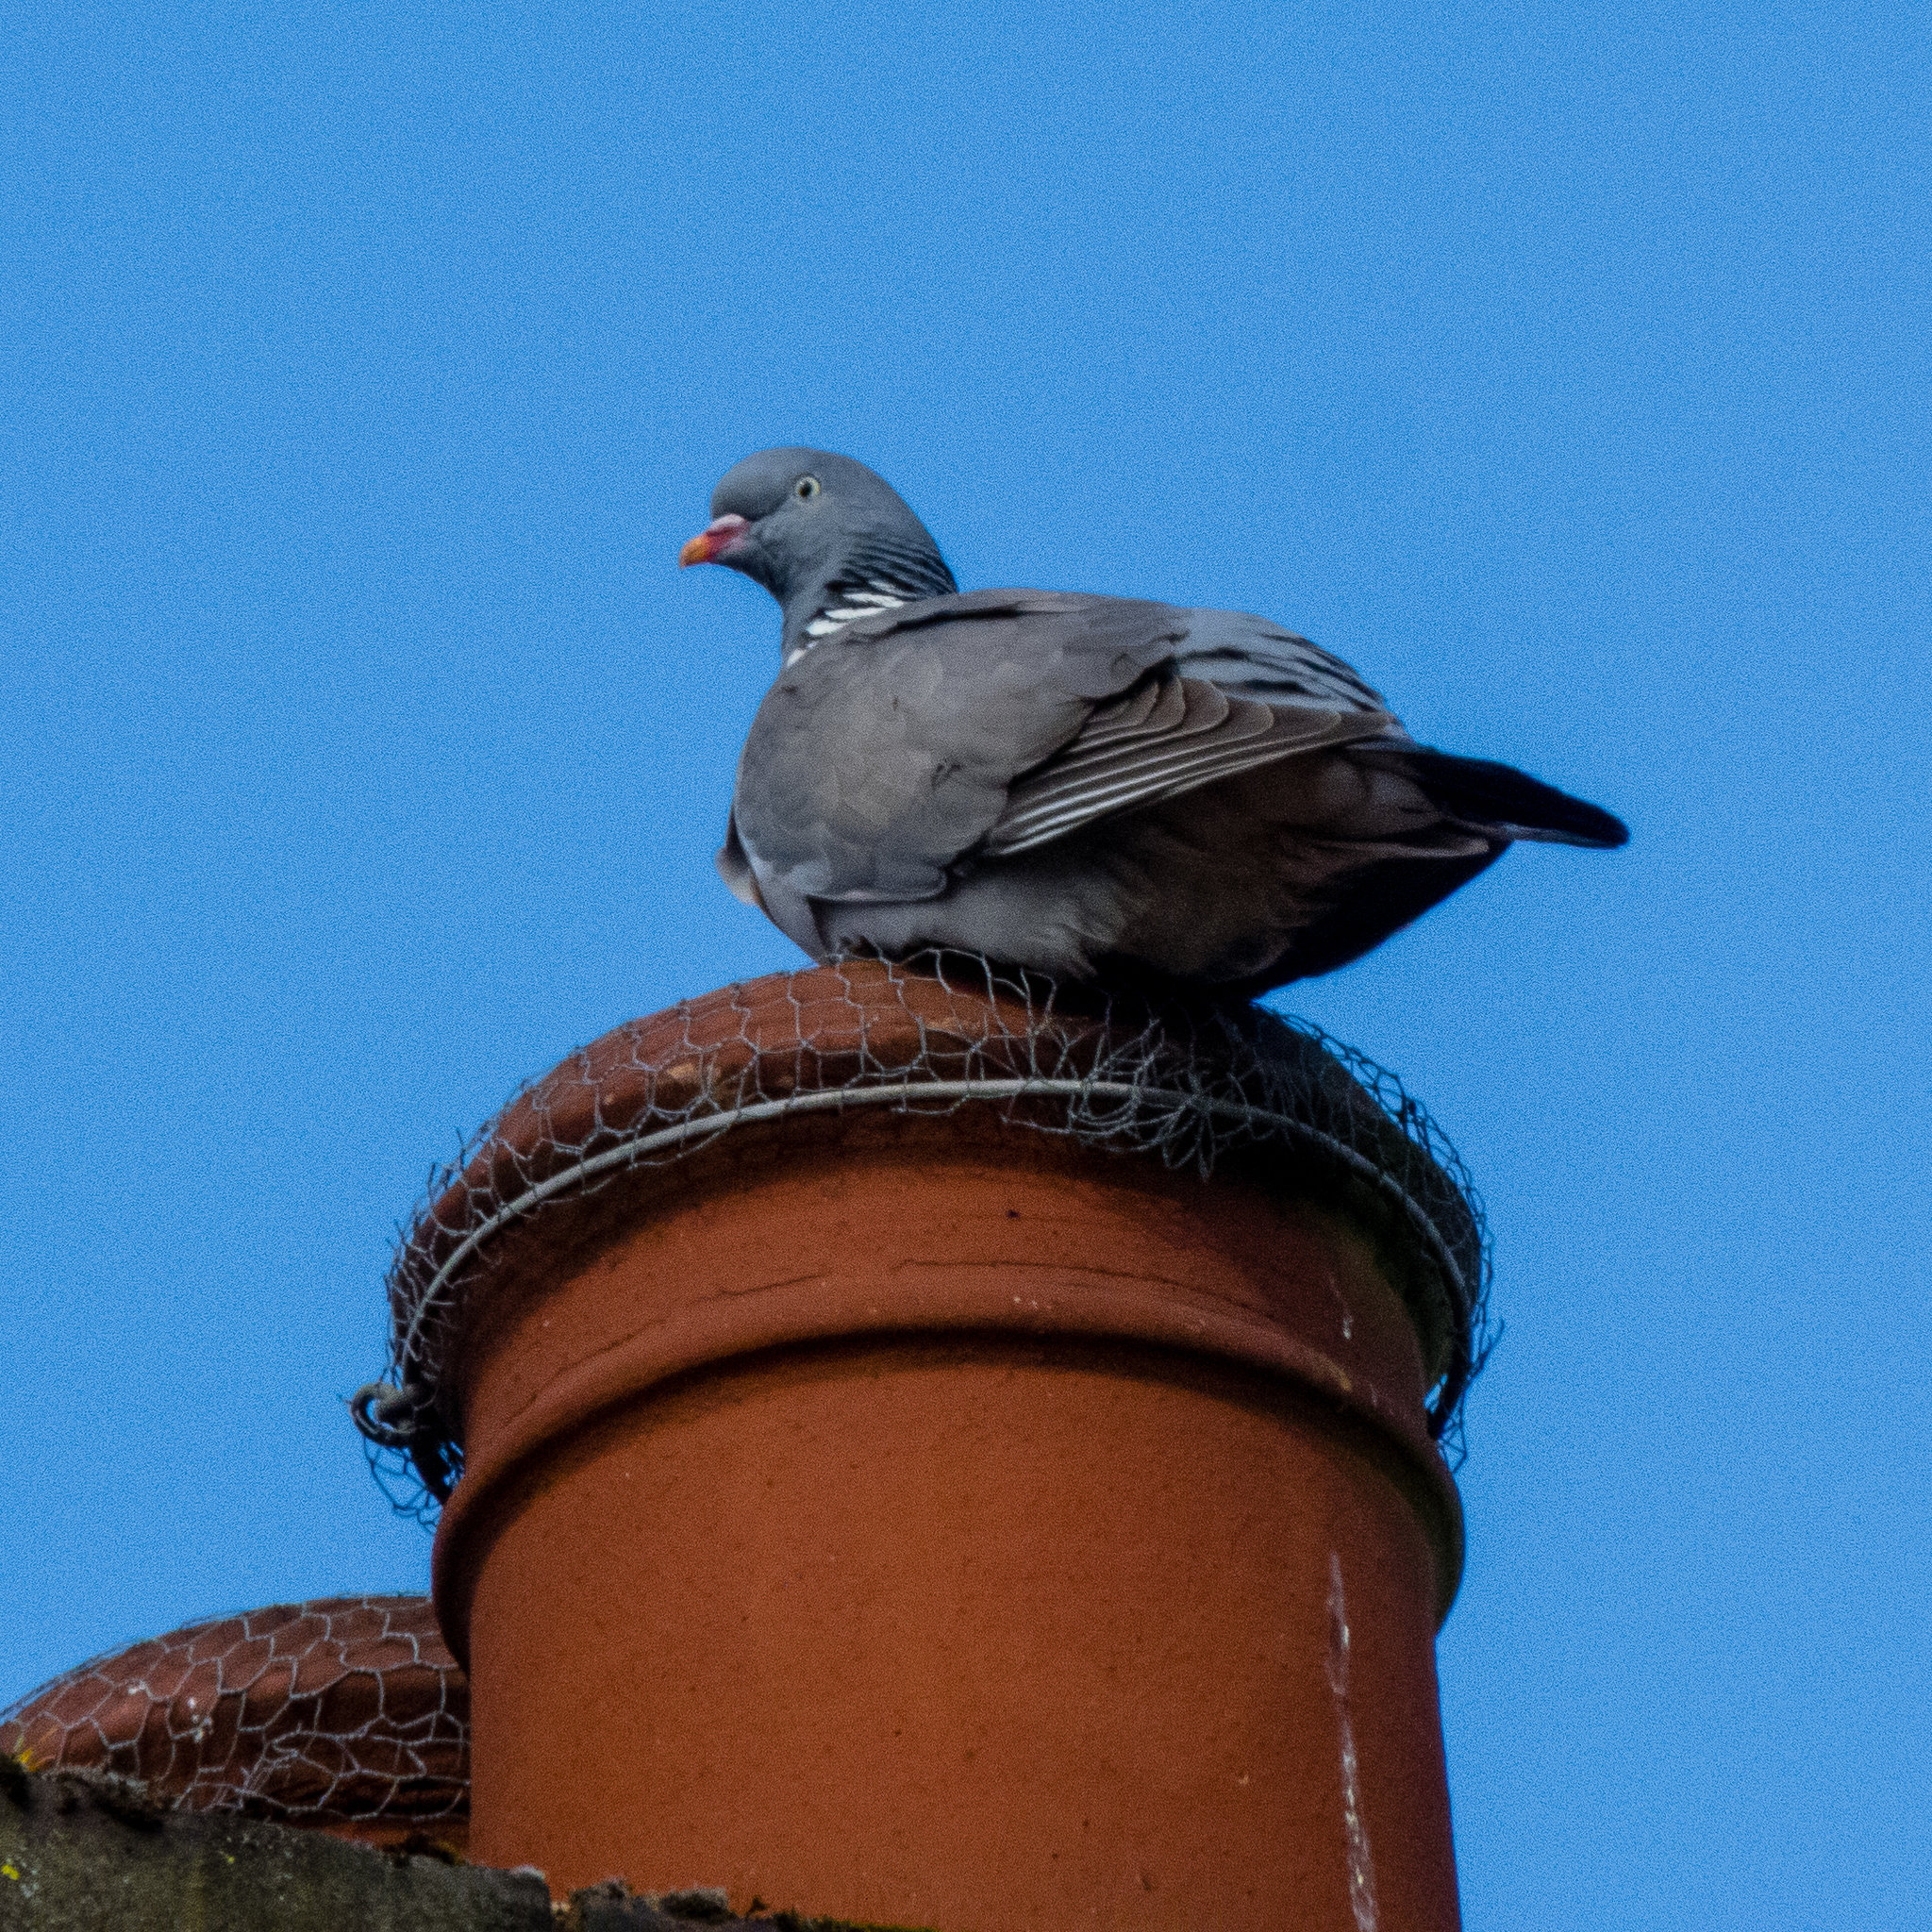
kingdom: Animalia
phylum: Chordata
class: Aves
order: Columbiformes
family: Columbidae
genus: Columba
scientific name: Columba palumbus
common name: Common wood pigeon
